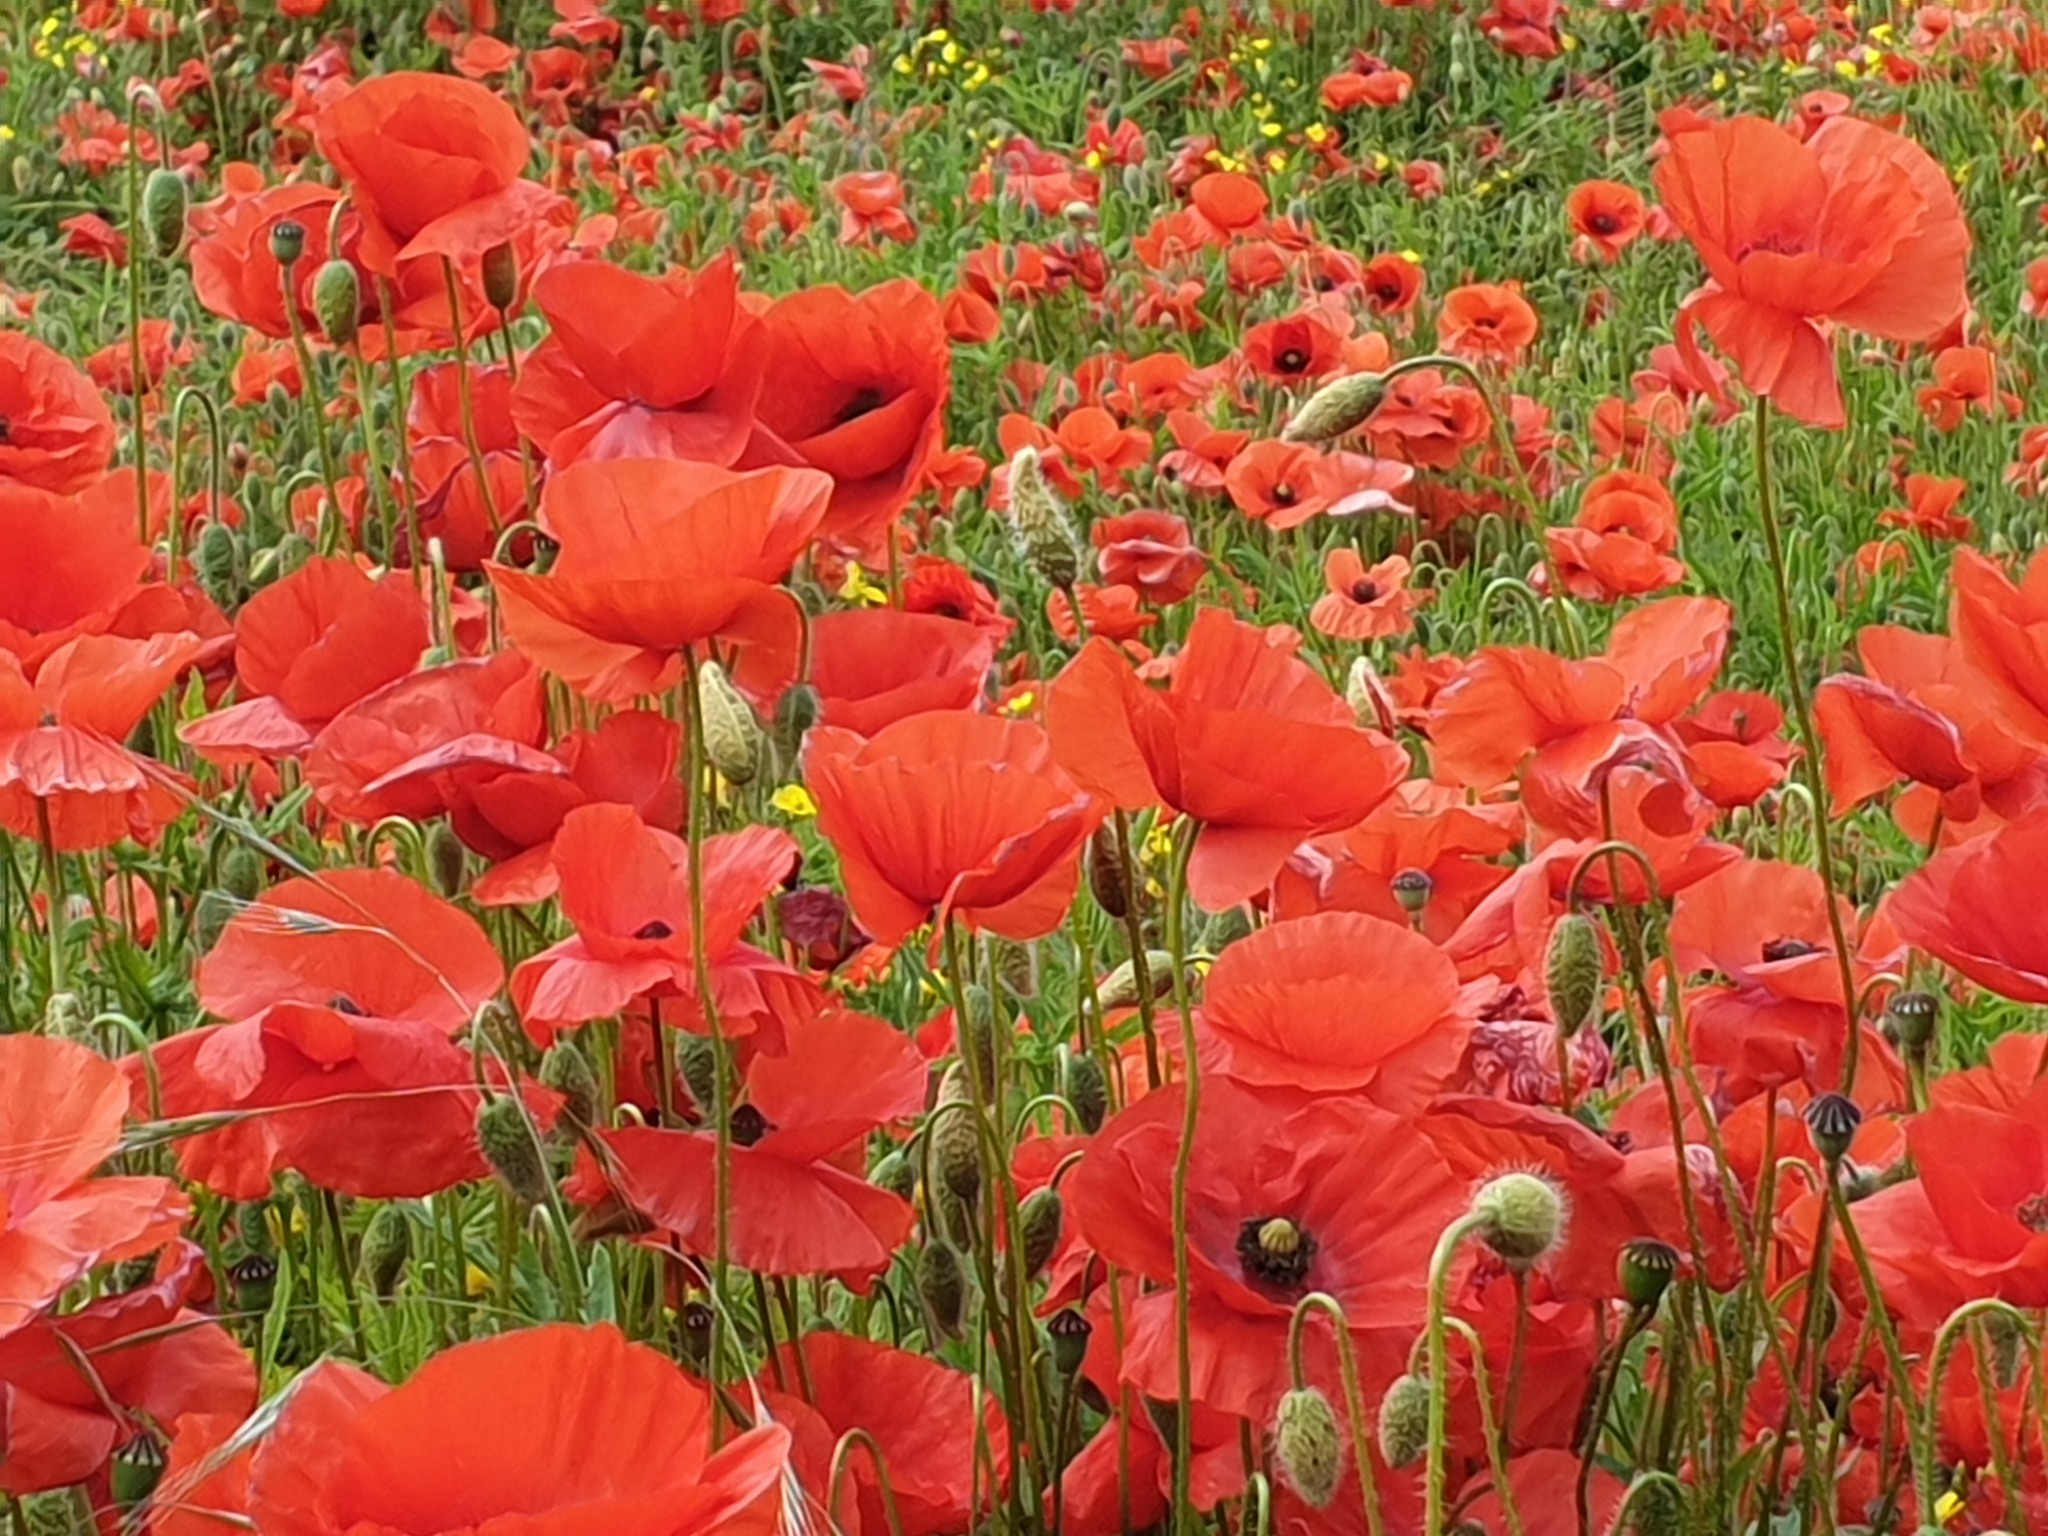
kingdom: Plantae
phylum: Tracheophyta
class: Magnoliopsida
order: Ranunculales
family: Papaveraceae
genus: Papaver
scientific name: Papaver rhoeas
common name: Corn poppy
